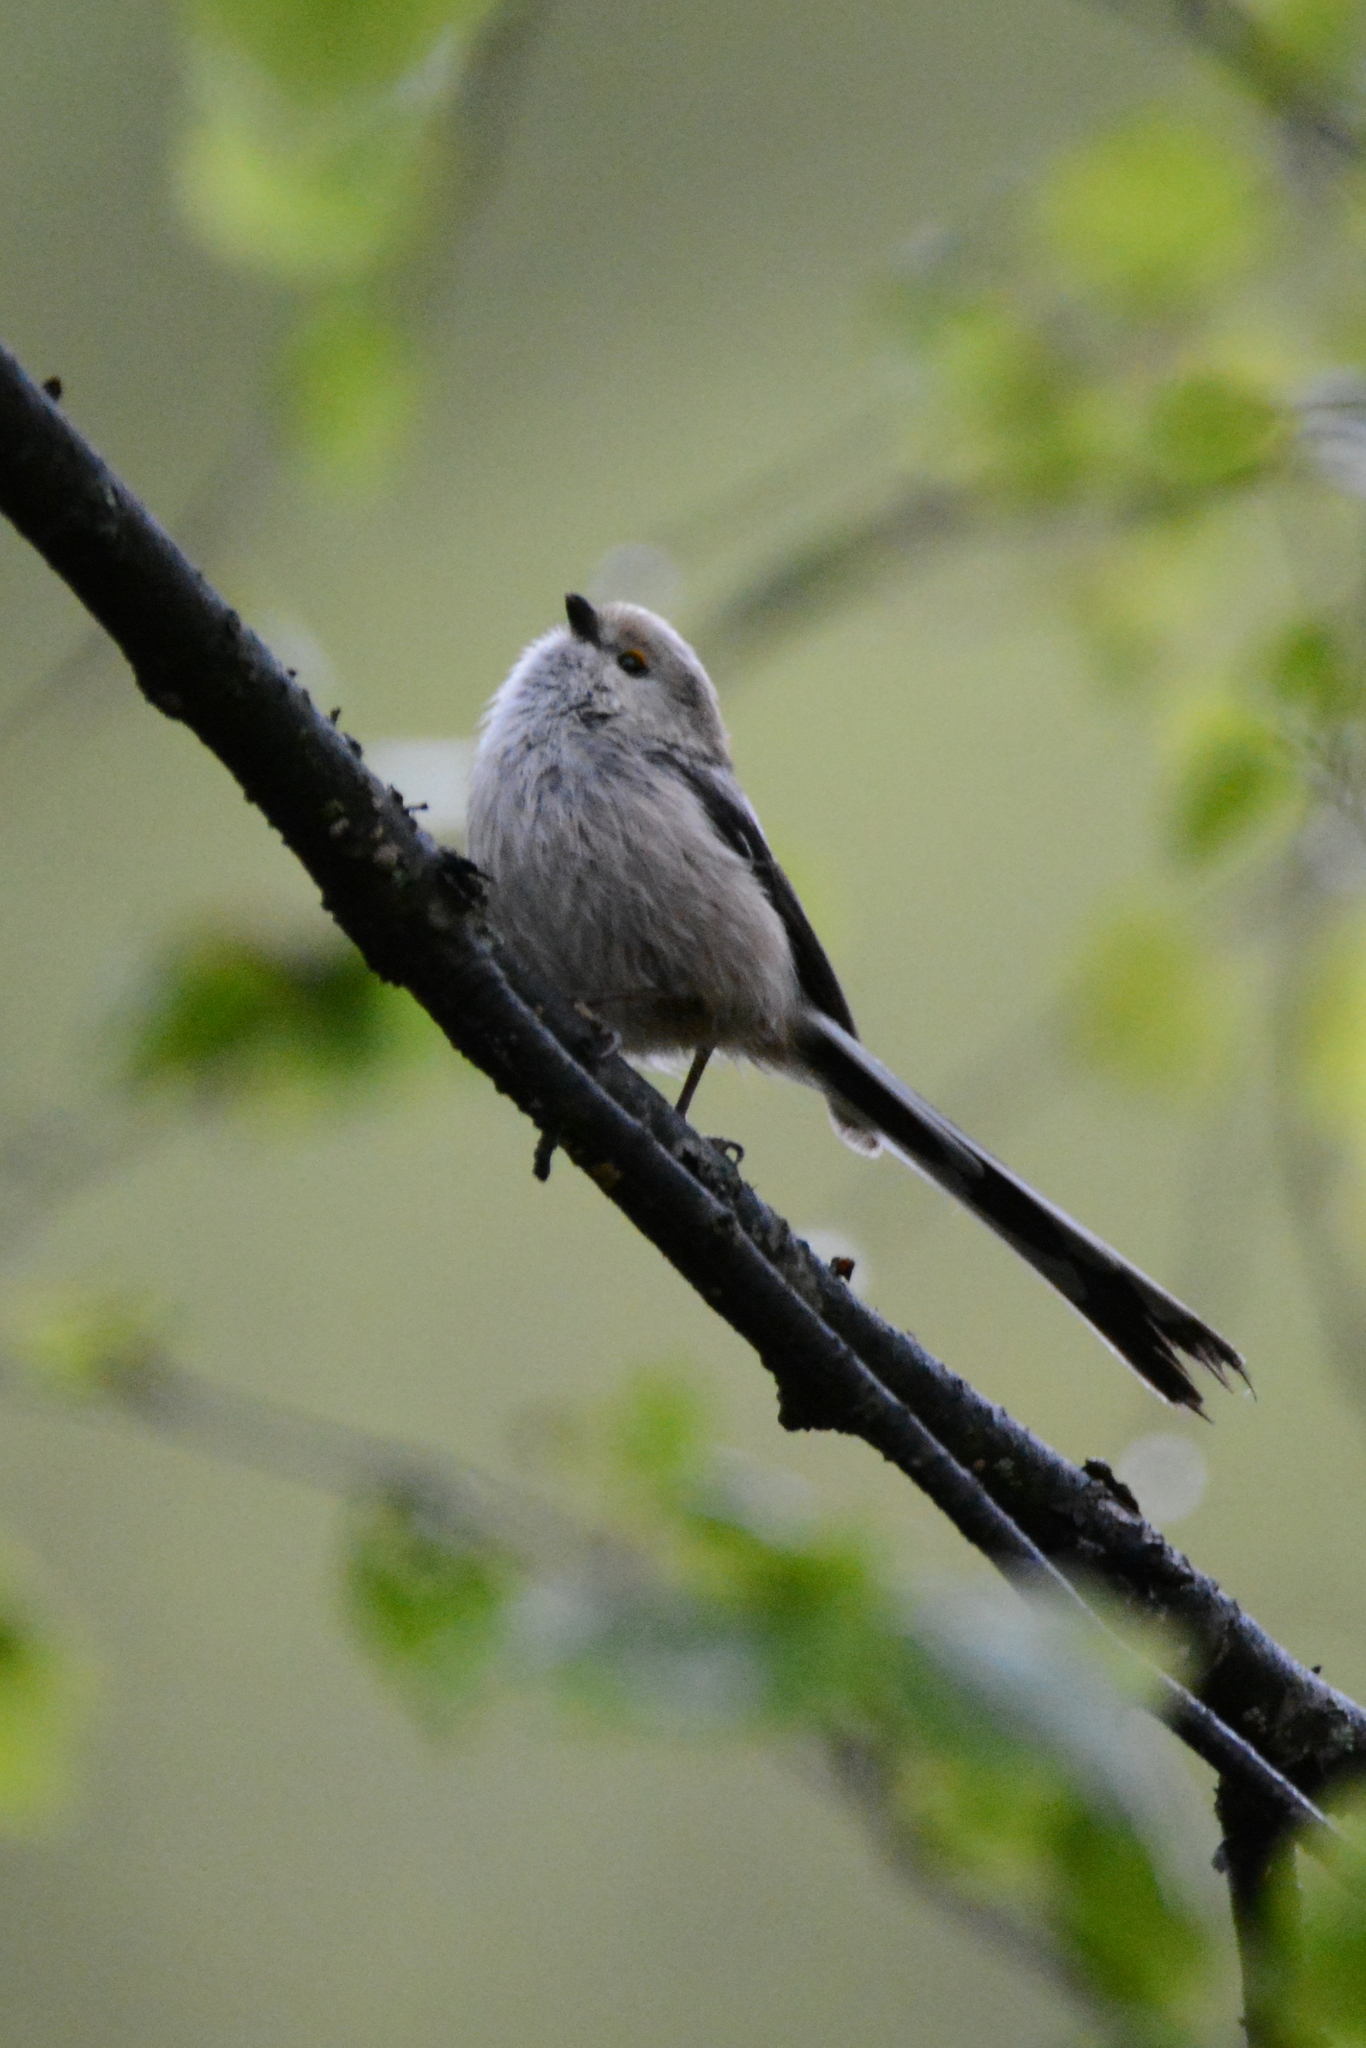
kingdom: Animalia
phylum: Chordata
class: Aves
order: Passeriformes
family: Aegithalidae
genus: Aegithalos
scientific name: Aegithalos caudatus
